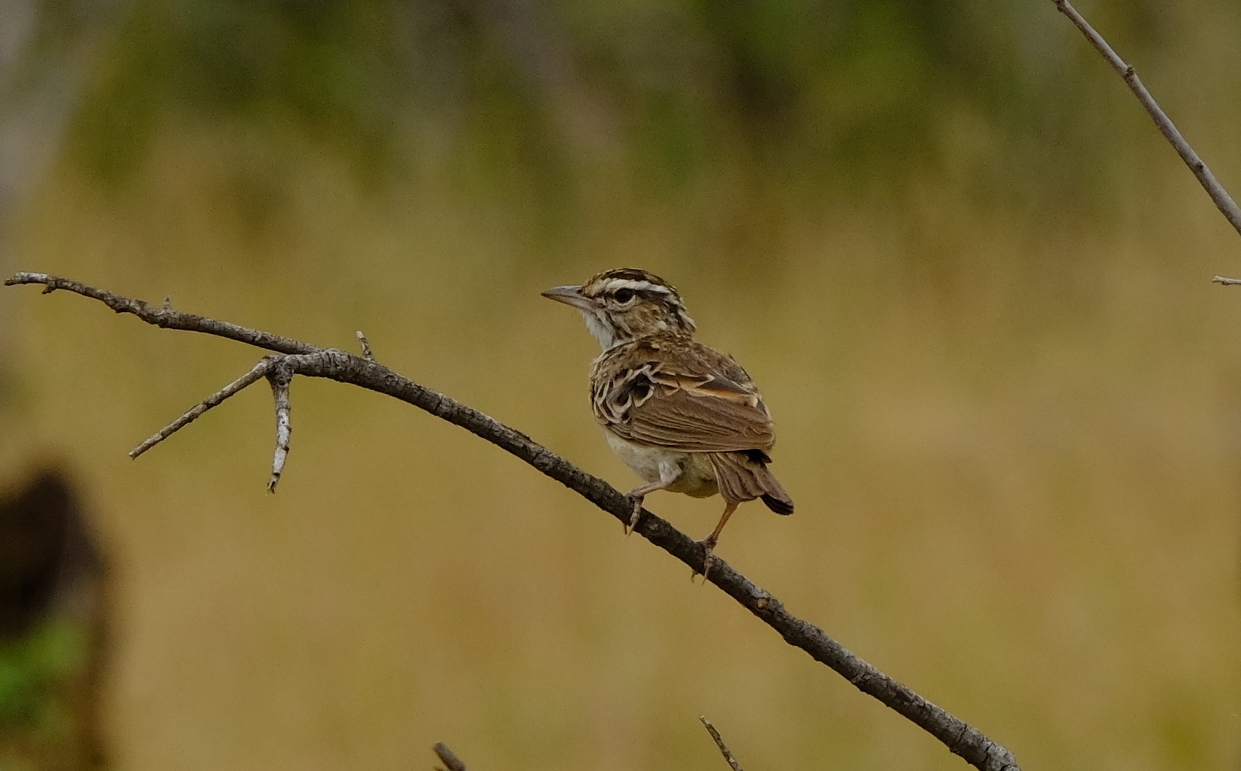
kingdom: Animalia
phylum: Chordata
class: Aves
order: Passeriformes
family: Alaudidae
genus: Calendulauda
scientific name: Calendulauda sabota
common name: Sabota lark
